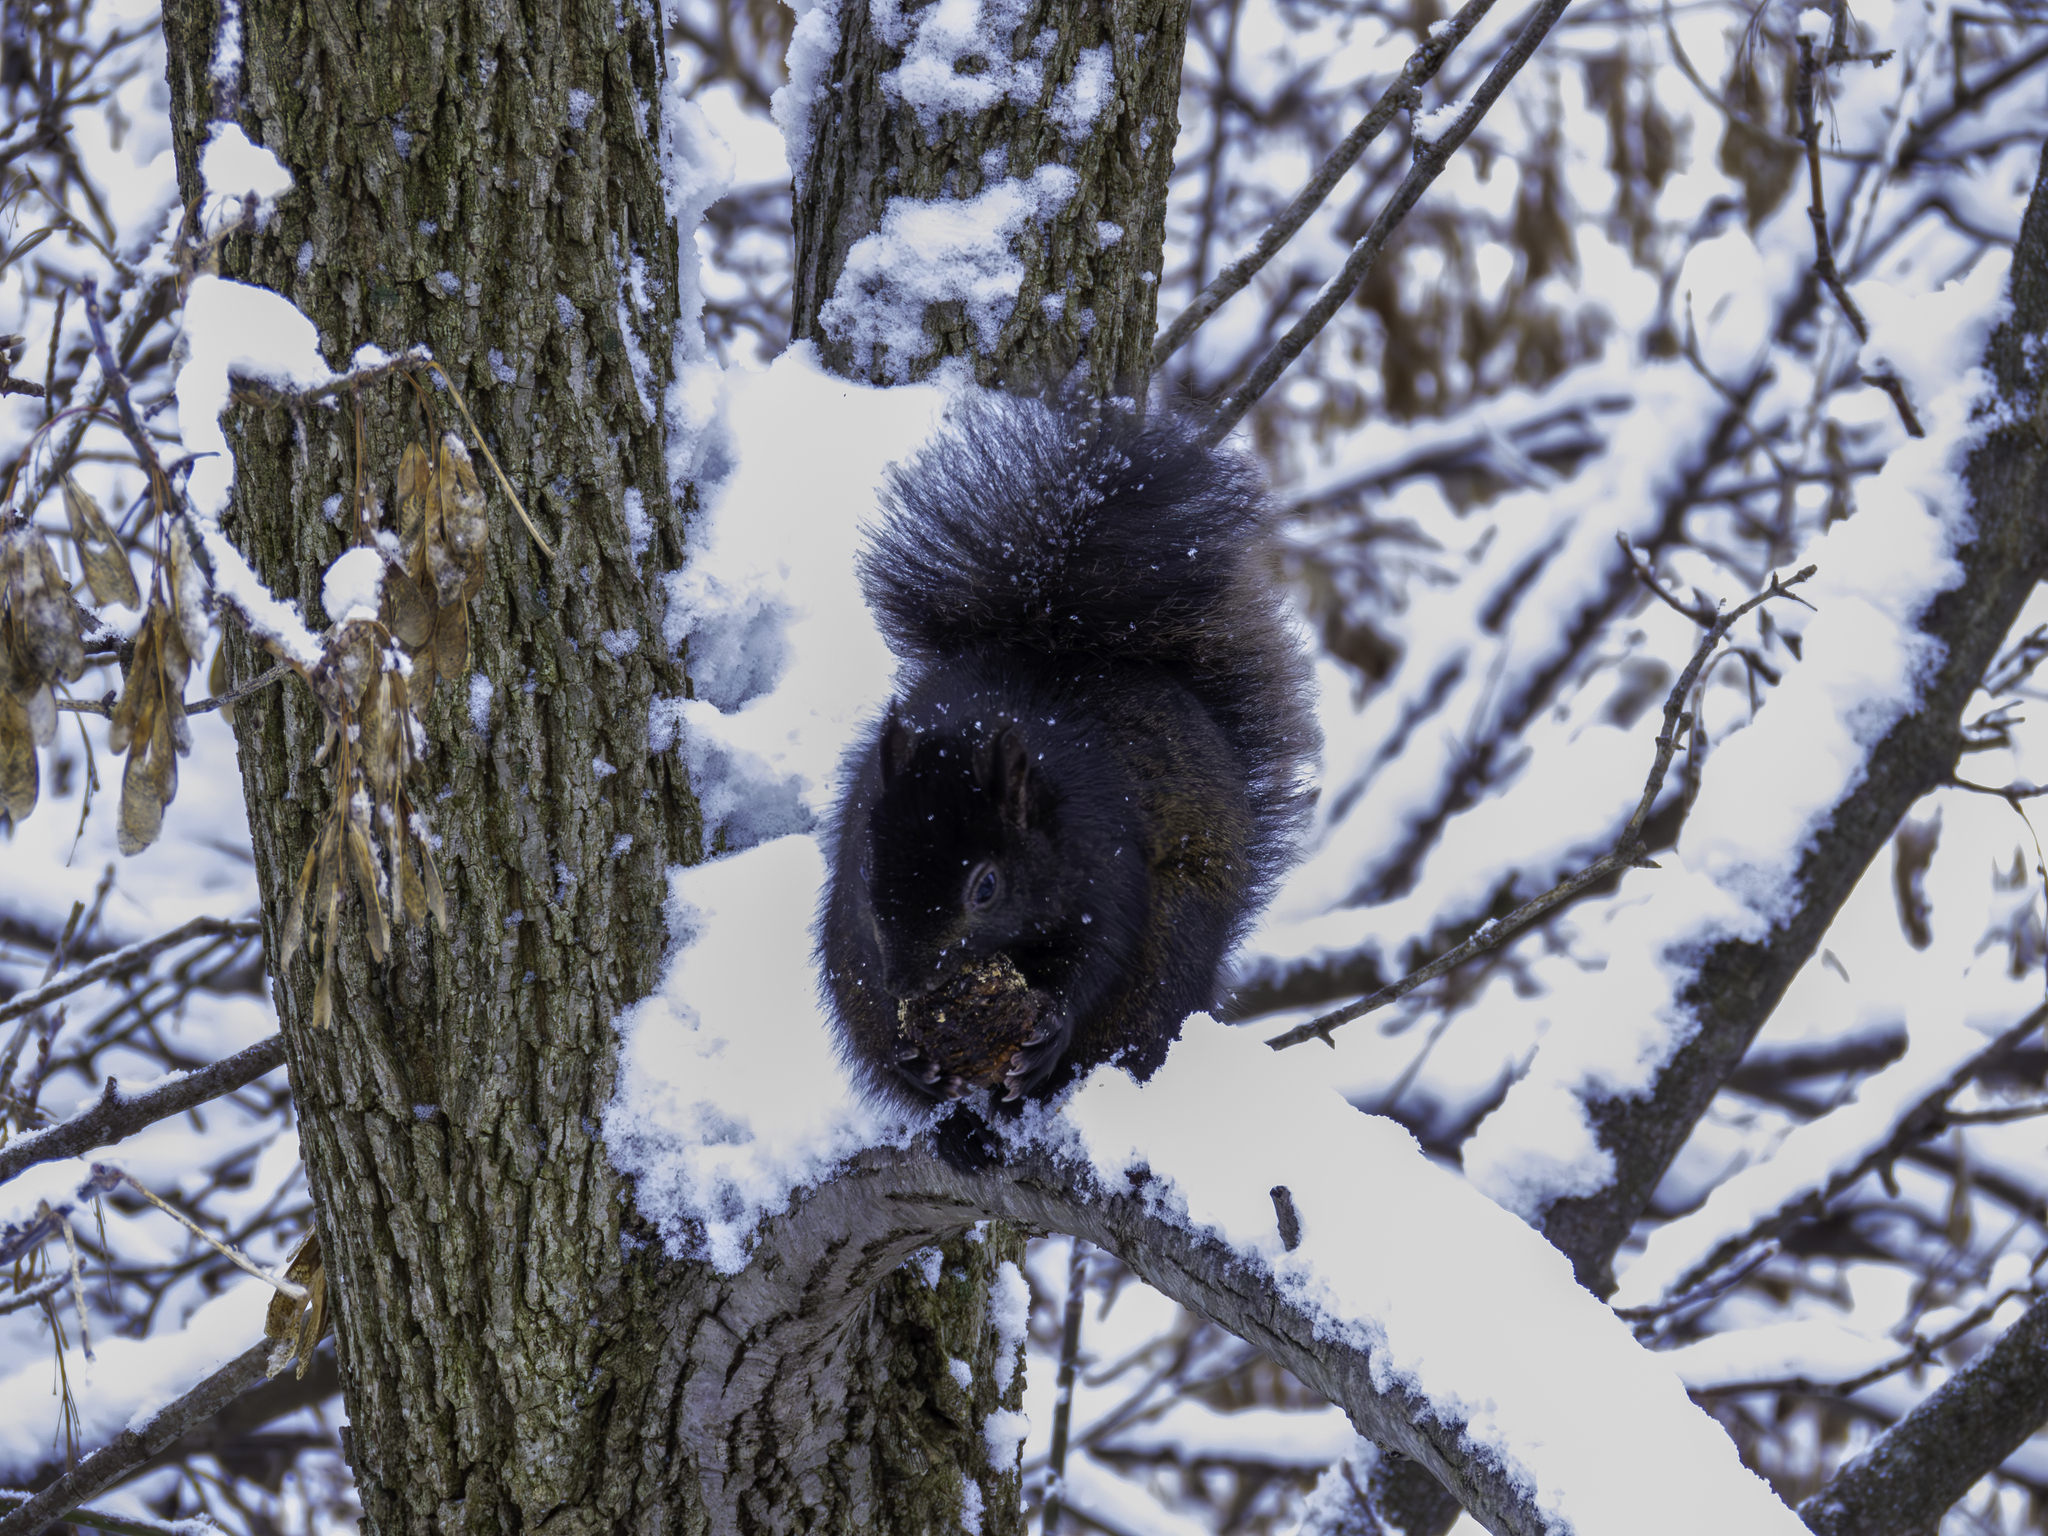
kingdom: Animalia
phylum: Chordata
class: Mammalia
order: Rodentia
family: Sciuridae
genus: Sciurus
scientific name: Sciurus carolinensis
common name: Eastern gray squirrel
